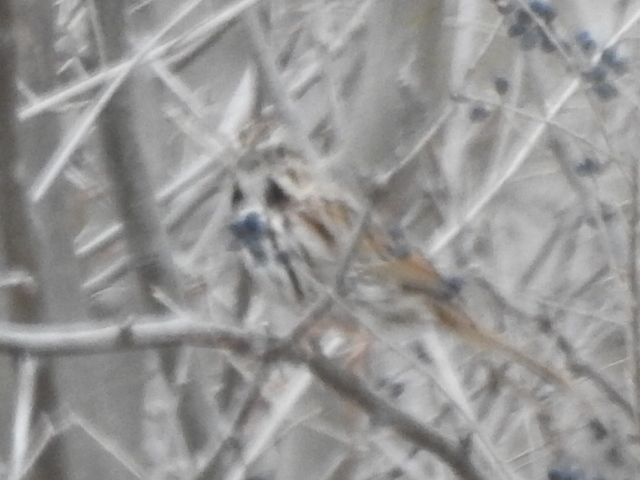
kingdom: Animalia
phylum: Chordata
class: Aves
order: Passeriformes
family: Passerellidae
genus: Melospiza
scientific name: Melospiza melodia
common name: Song sparrow
